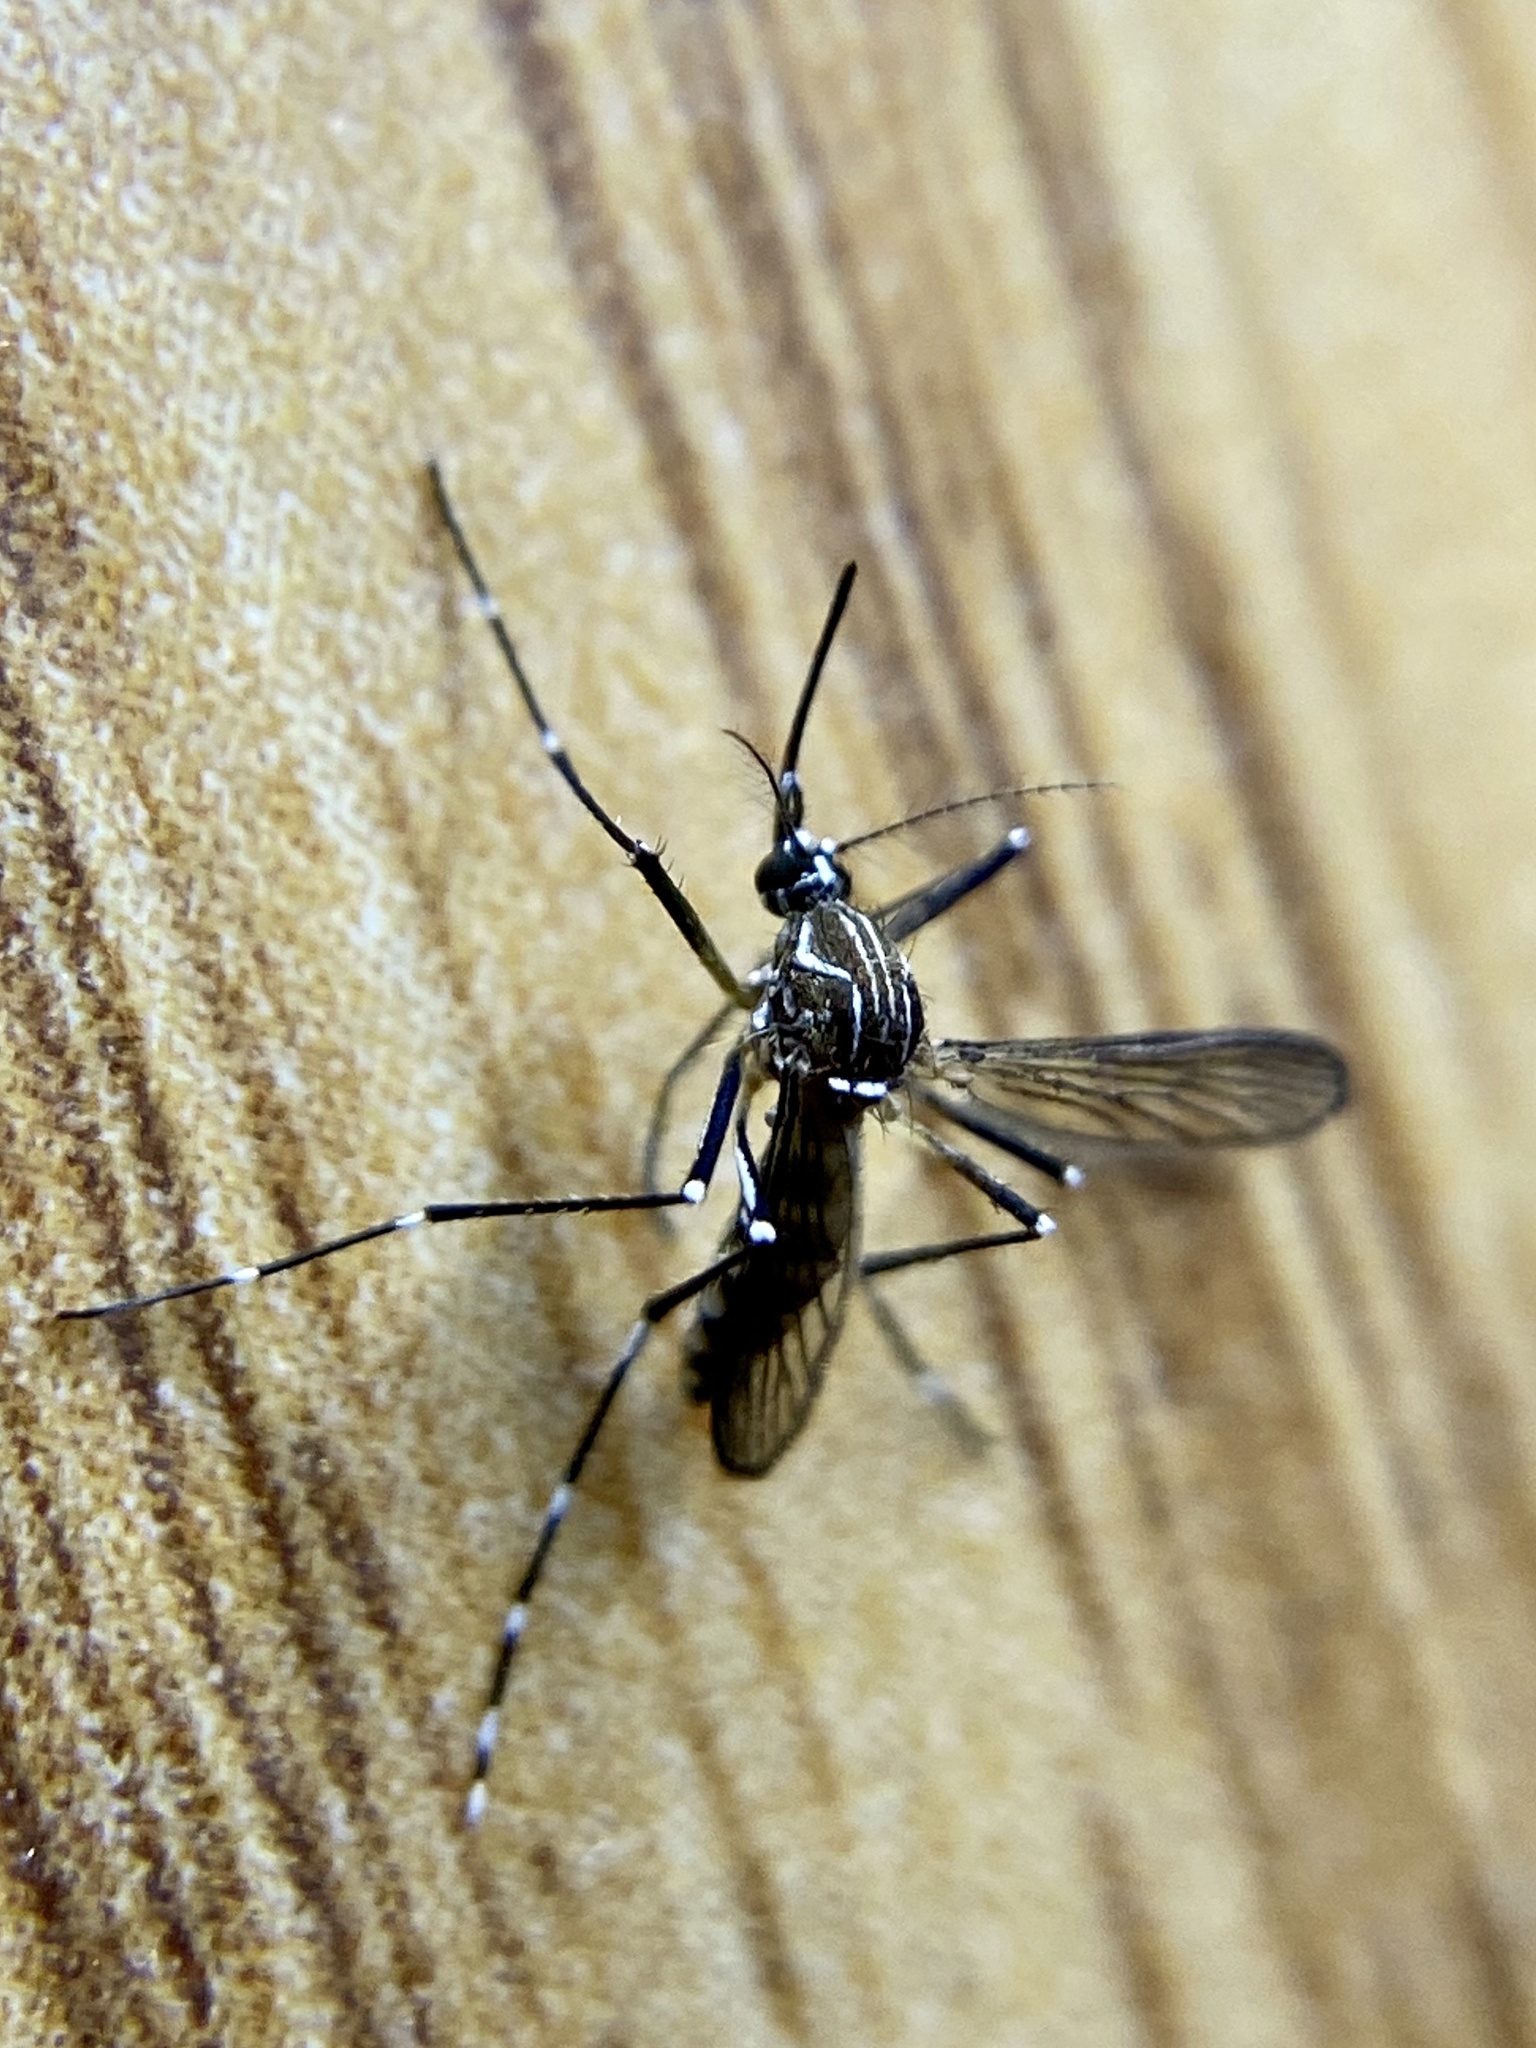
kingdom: Animalia
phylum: Arthropoda
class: Insecta
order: Diptera
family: Culicidae
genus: Aedes
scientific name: Aedes aegypti
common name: Yellow fever mosquito
